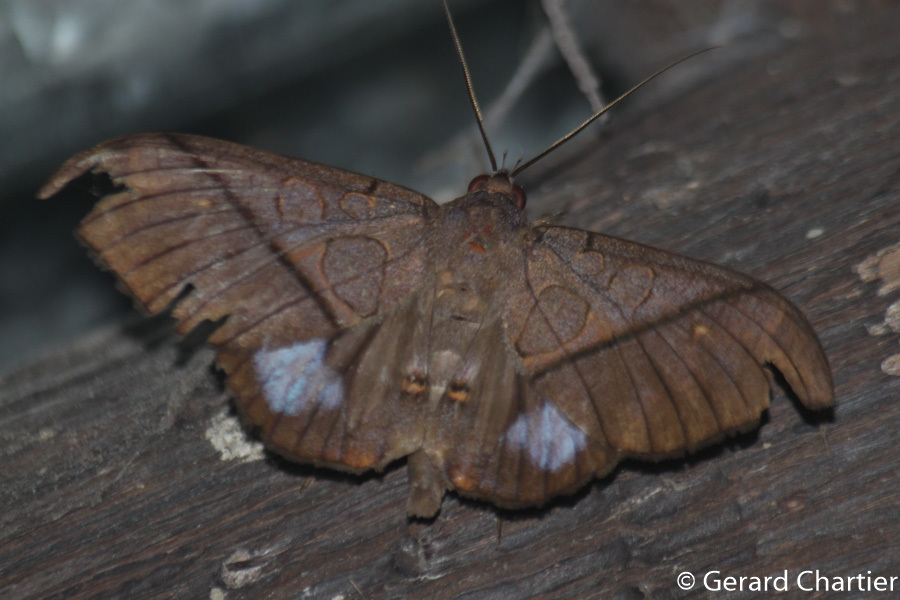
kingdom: Animalia
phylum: Arthropoda
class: Insecta
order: Lepidoptera
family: Erebidae
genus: Ischyja
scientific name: Ischyja hagenii
